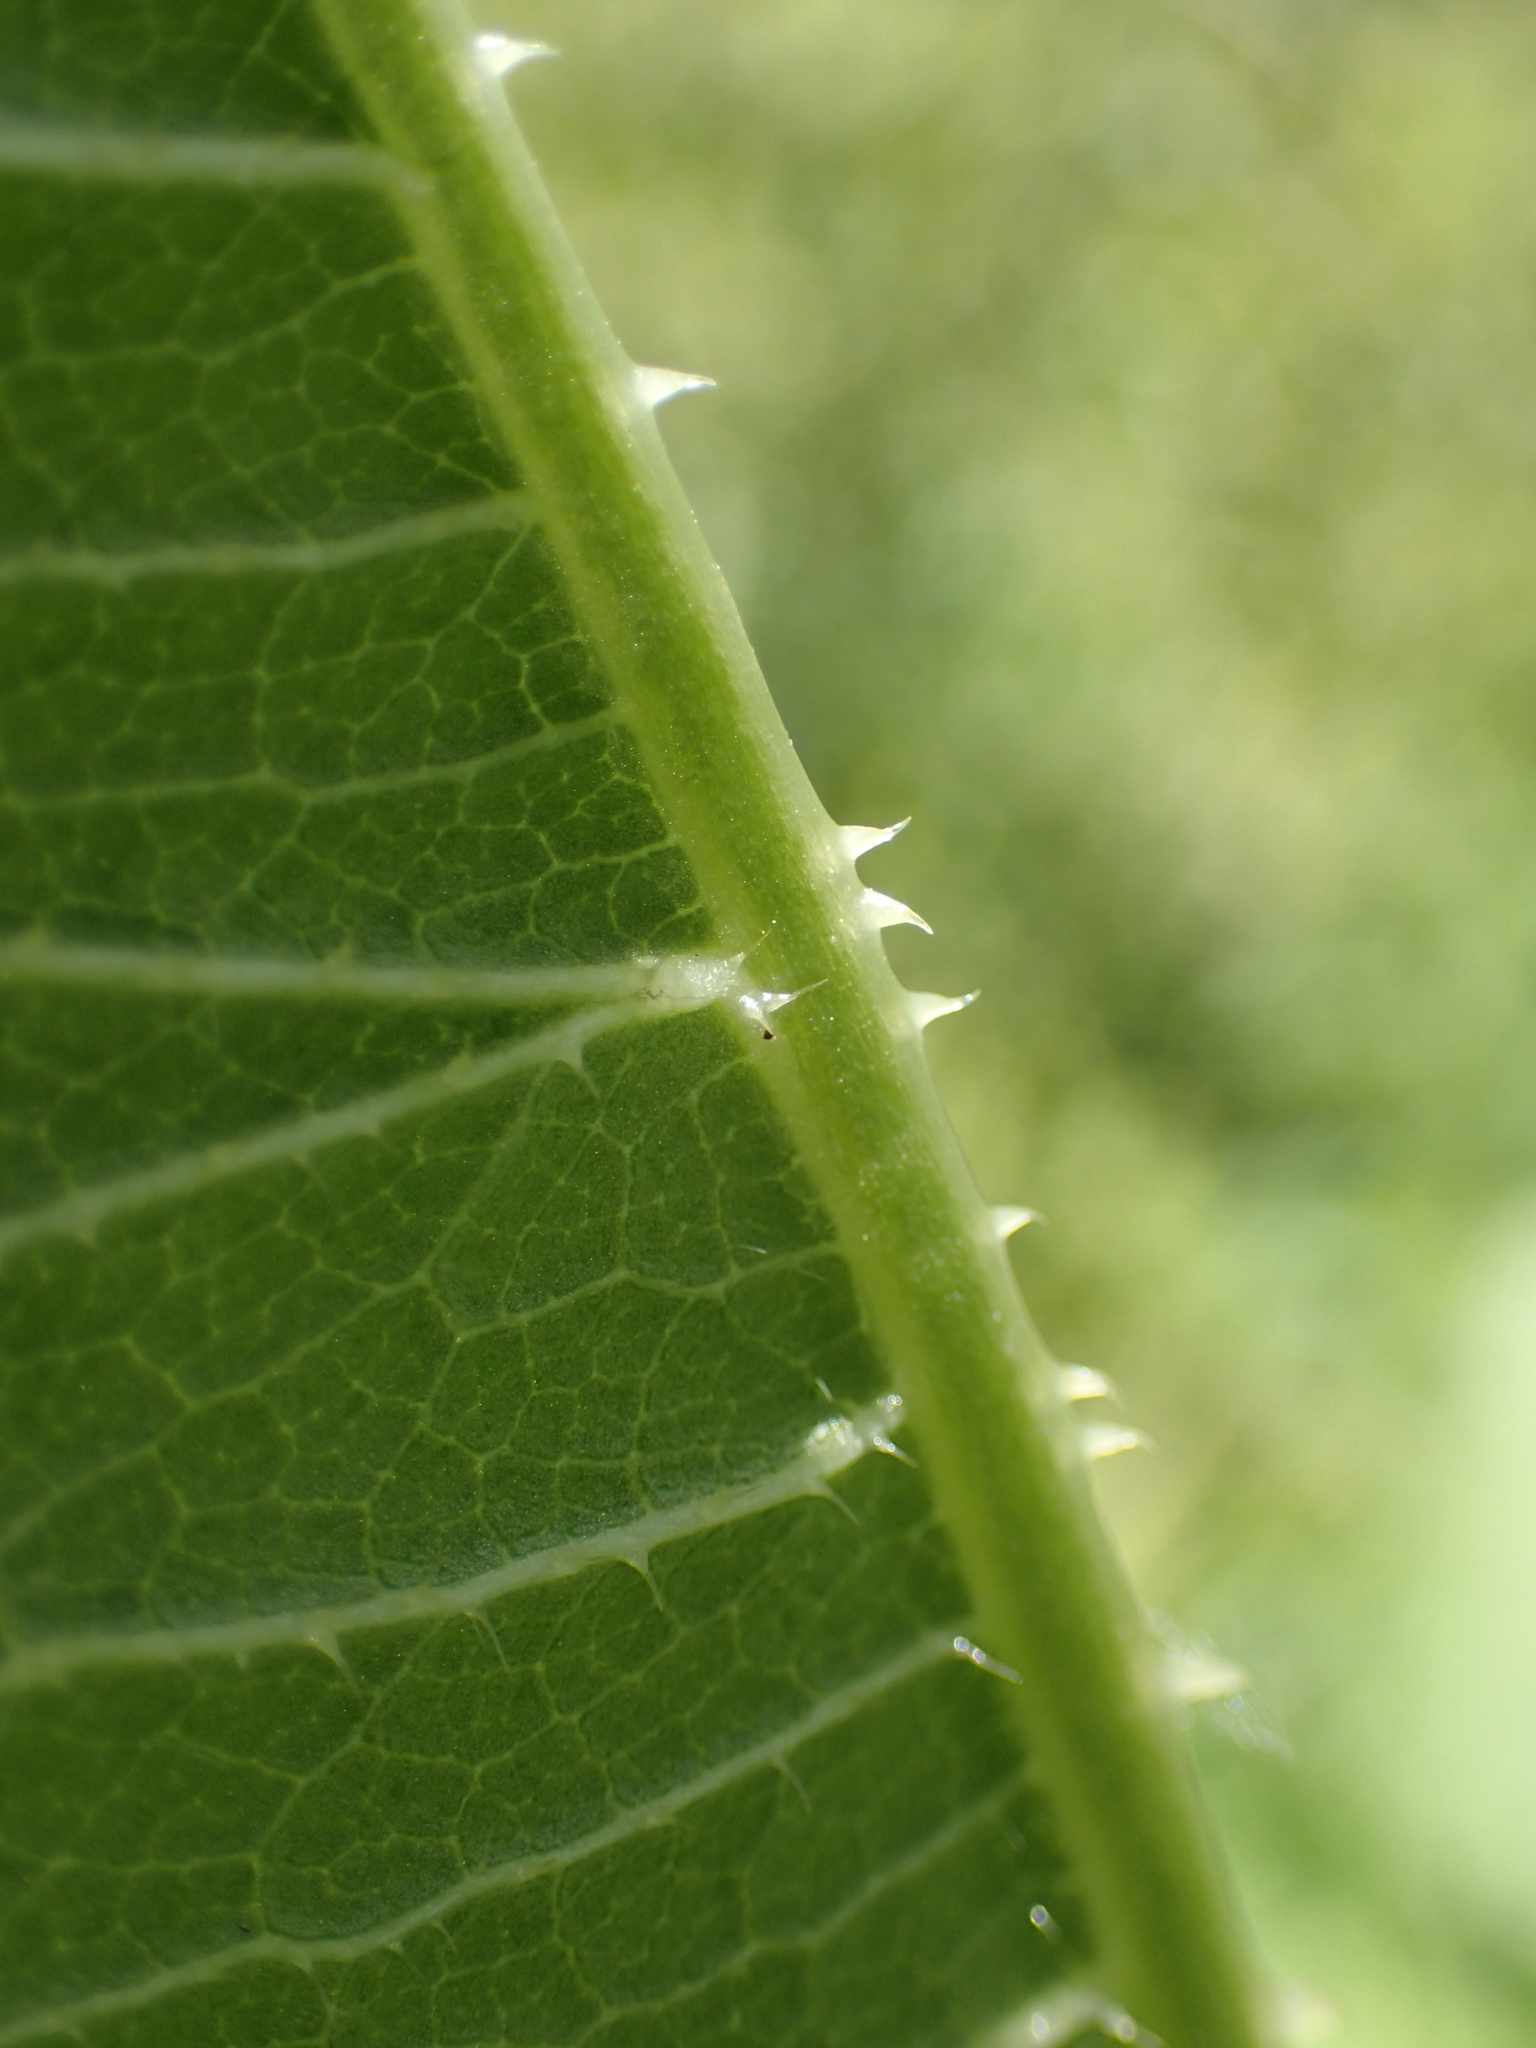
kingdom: Plantae
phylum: Tracheophyta
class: Magnoliopsida
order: Dipsacales
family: Caprifoliaceae
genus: Dipsacus
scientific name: Dipsacus laciniatus
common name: Cut-leaved teasel
